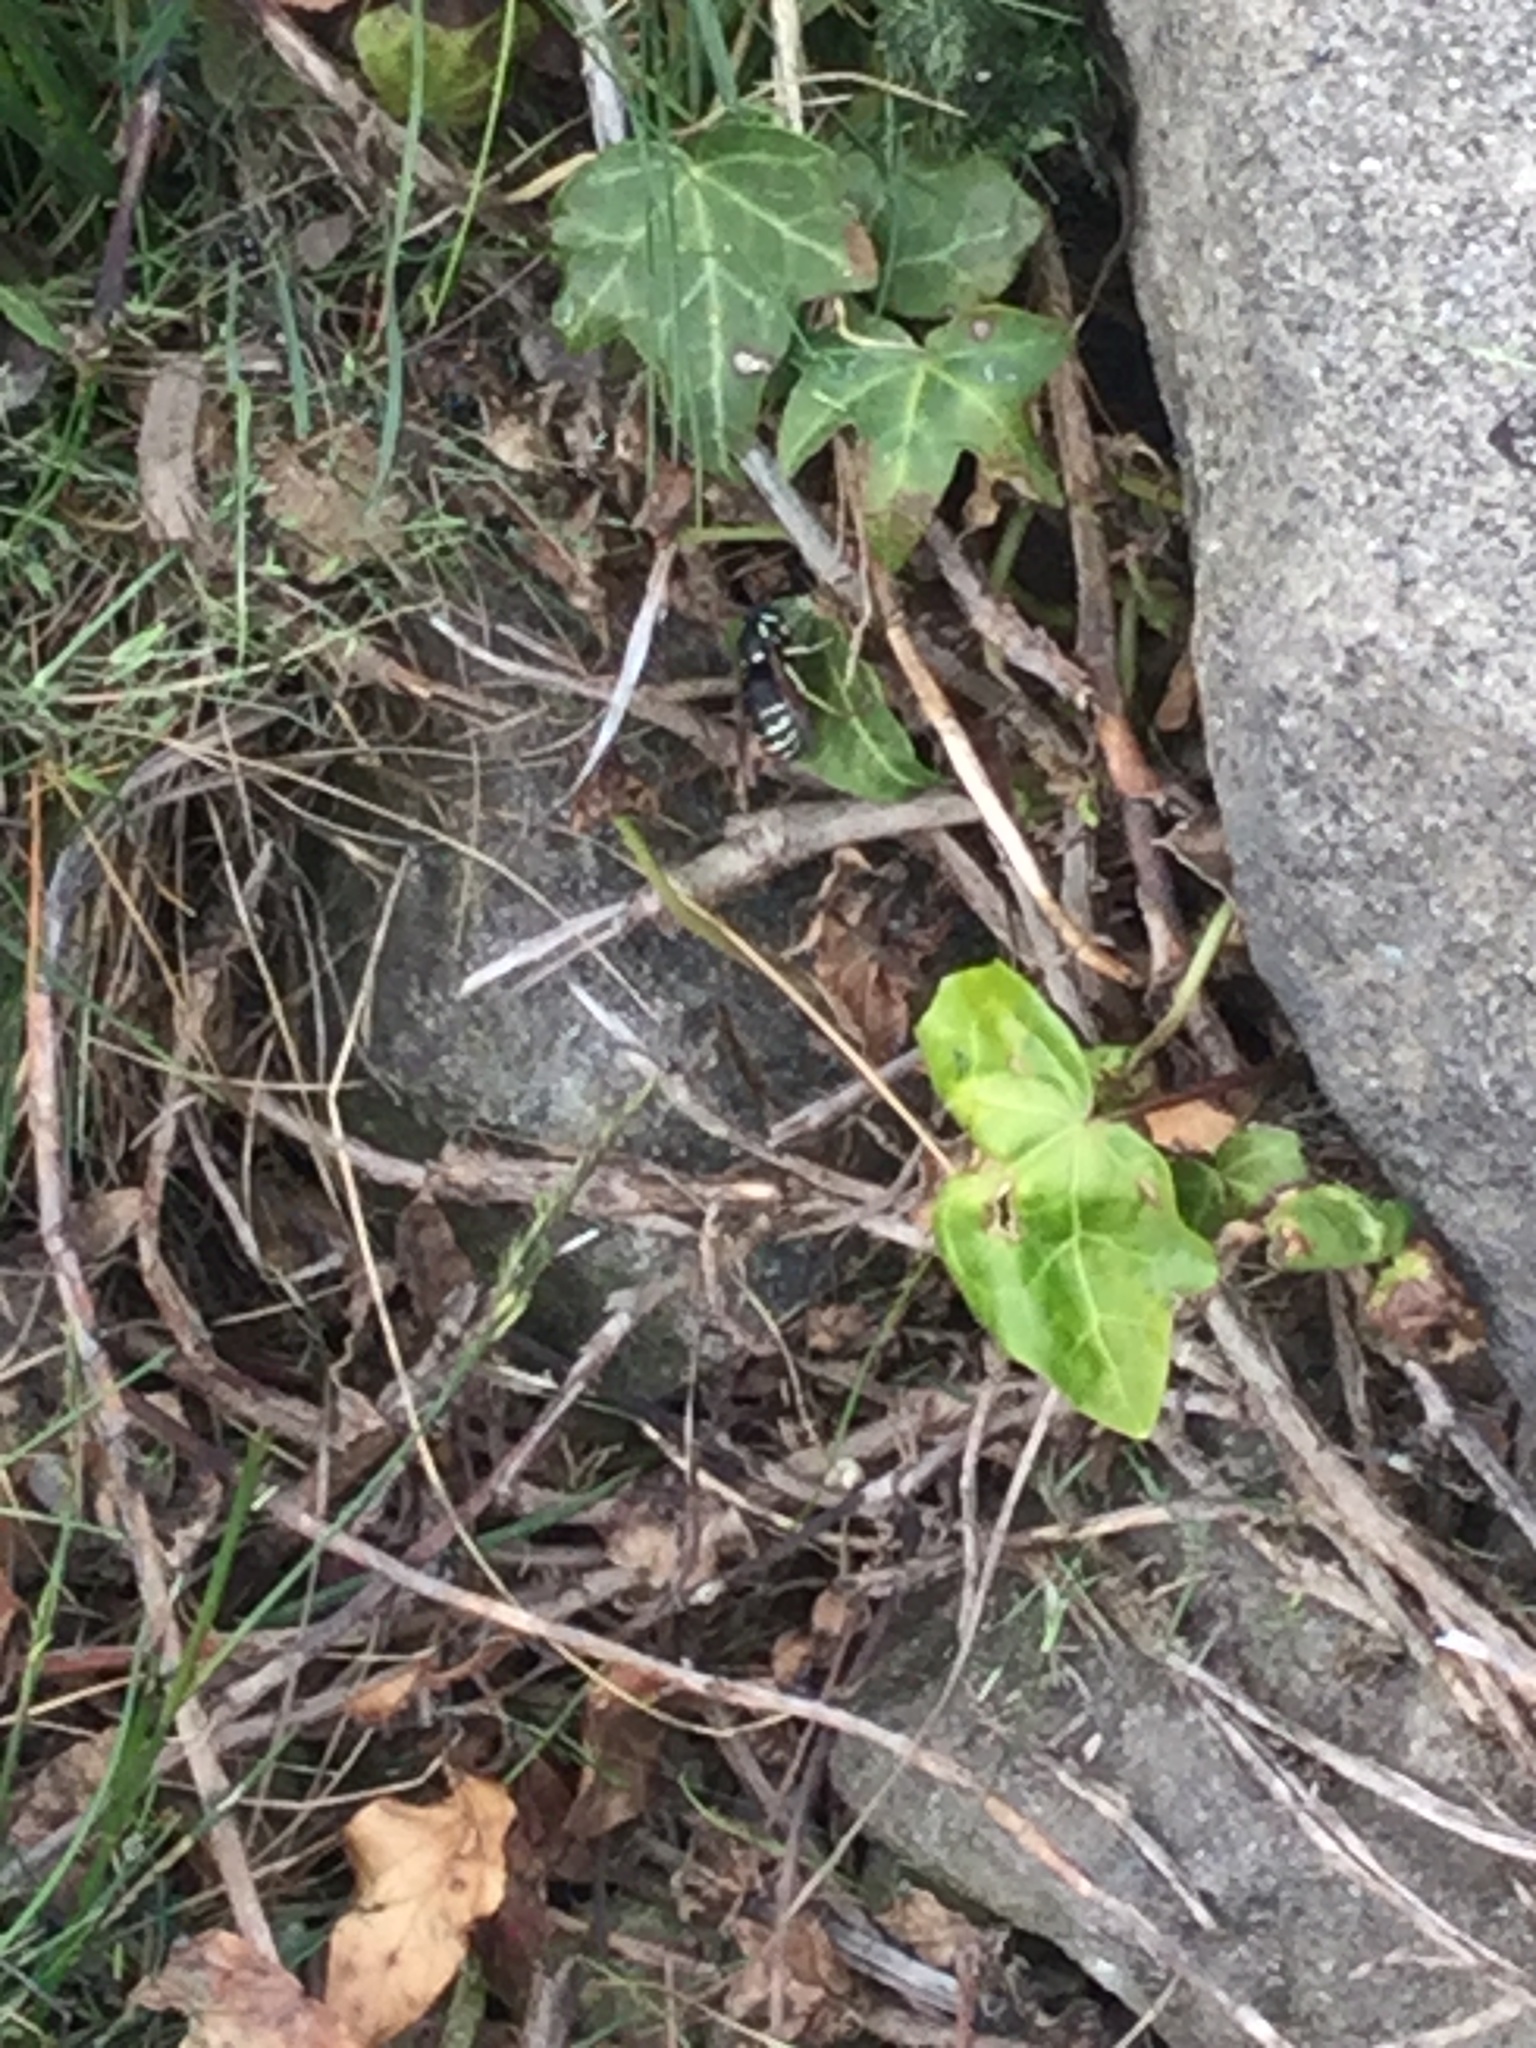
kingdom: Animalia
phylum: Arthropoda
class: Insecta
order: Hymenoptera
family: Vespidae
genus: Vespula
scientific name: Vespula consobrina
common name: Blackjacket
